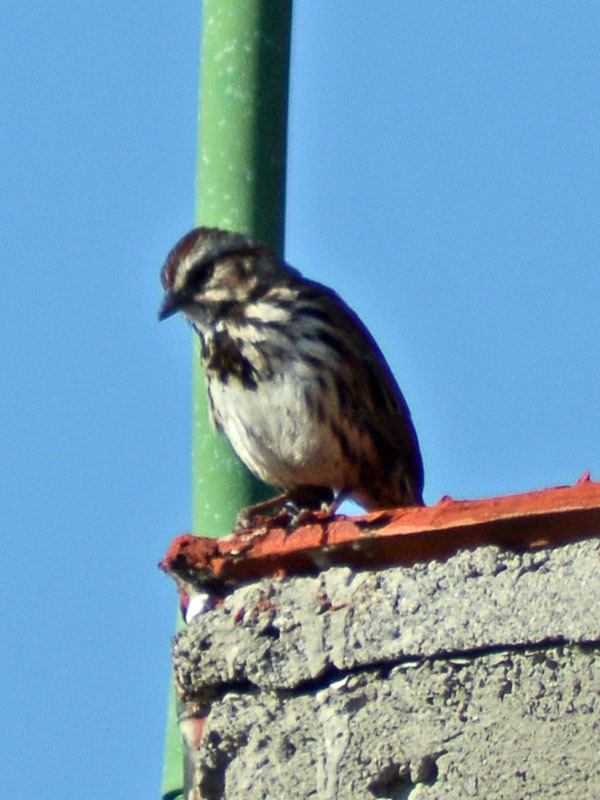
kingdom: Animalia
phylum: Chordata
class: Aves
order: Passeriformes
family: Passerellidae
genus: Melospiza
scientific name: Melospiza melodia
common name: Song sparrow
